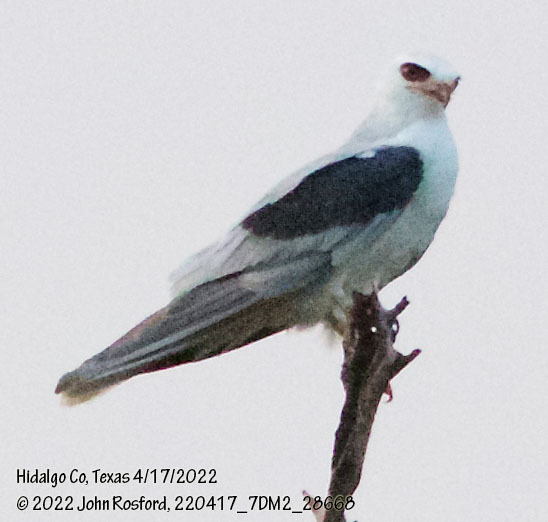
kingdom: Animalia
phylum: Chordata
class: Aves
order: Accipitriformes
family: Accipitridae
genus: Elanus
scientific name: Elanus leucurus
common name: White-tailed kite
